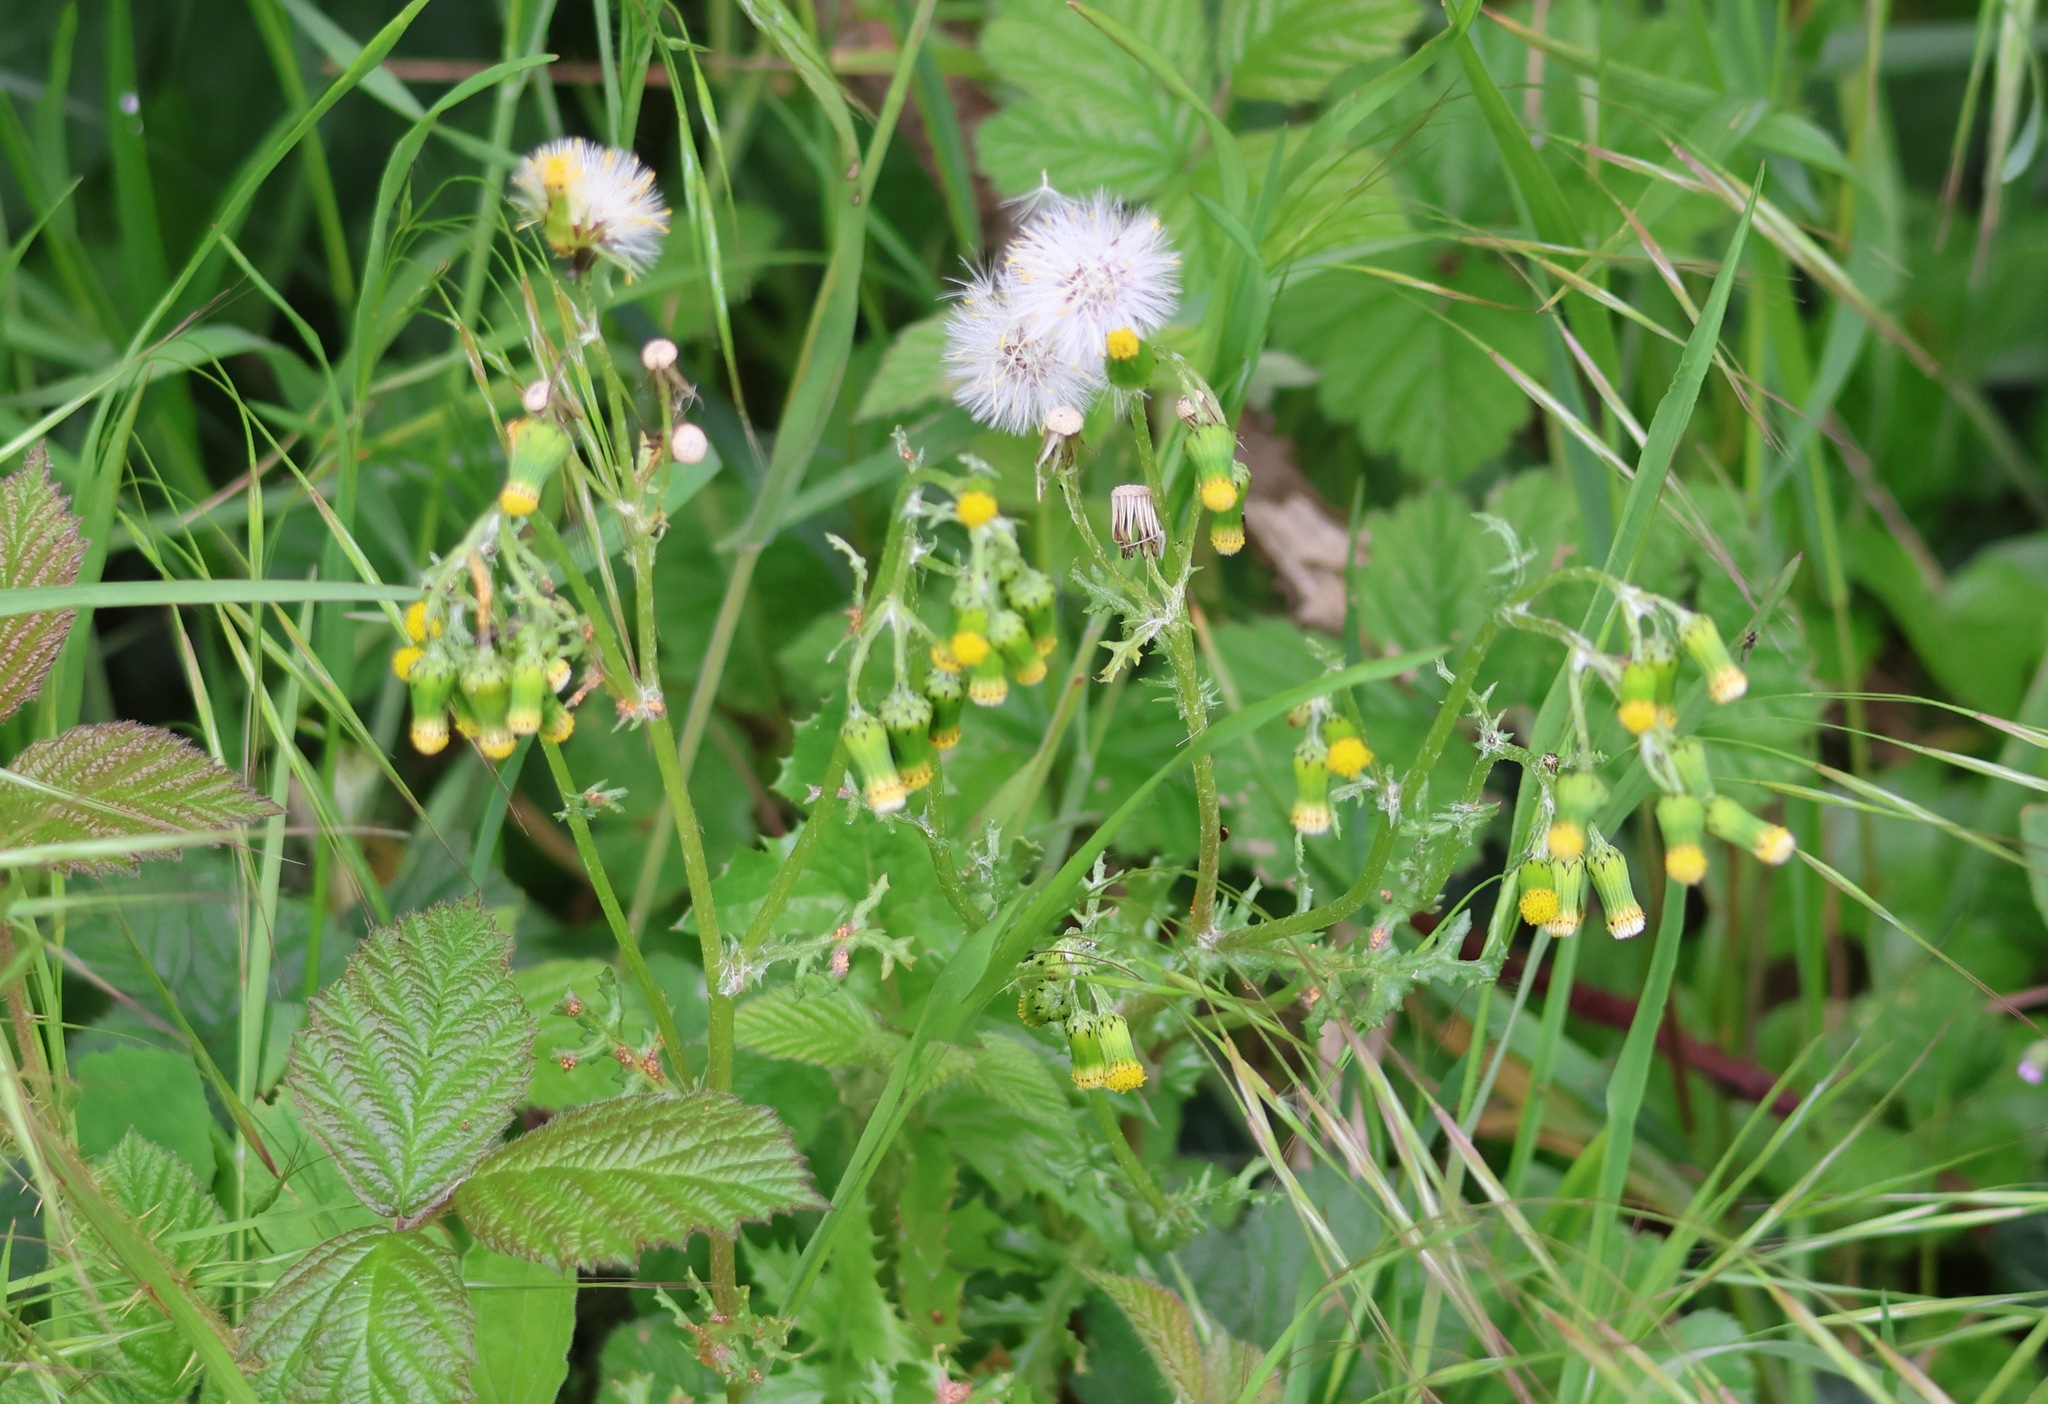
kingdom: Plantae
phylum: Tracheophyta
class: Magnoliopsida
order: Asterales
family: Asteraceae
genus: Senecio
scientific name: Senecio vulgaris
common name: Old-man-in-the-spring
